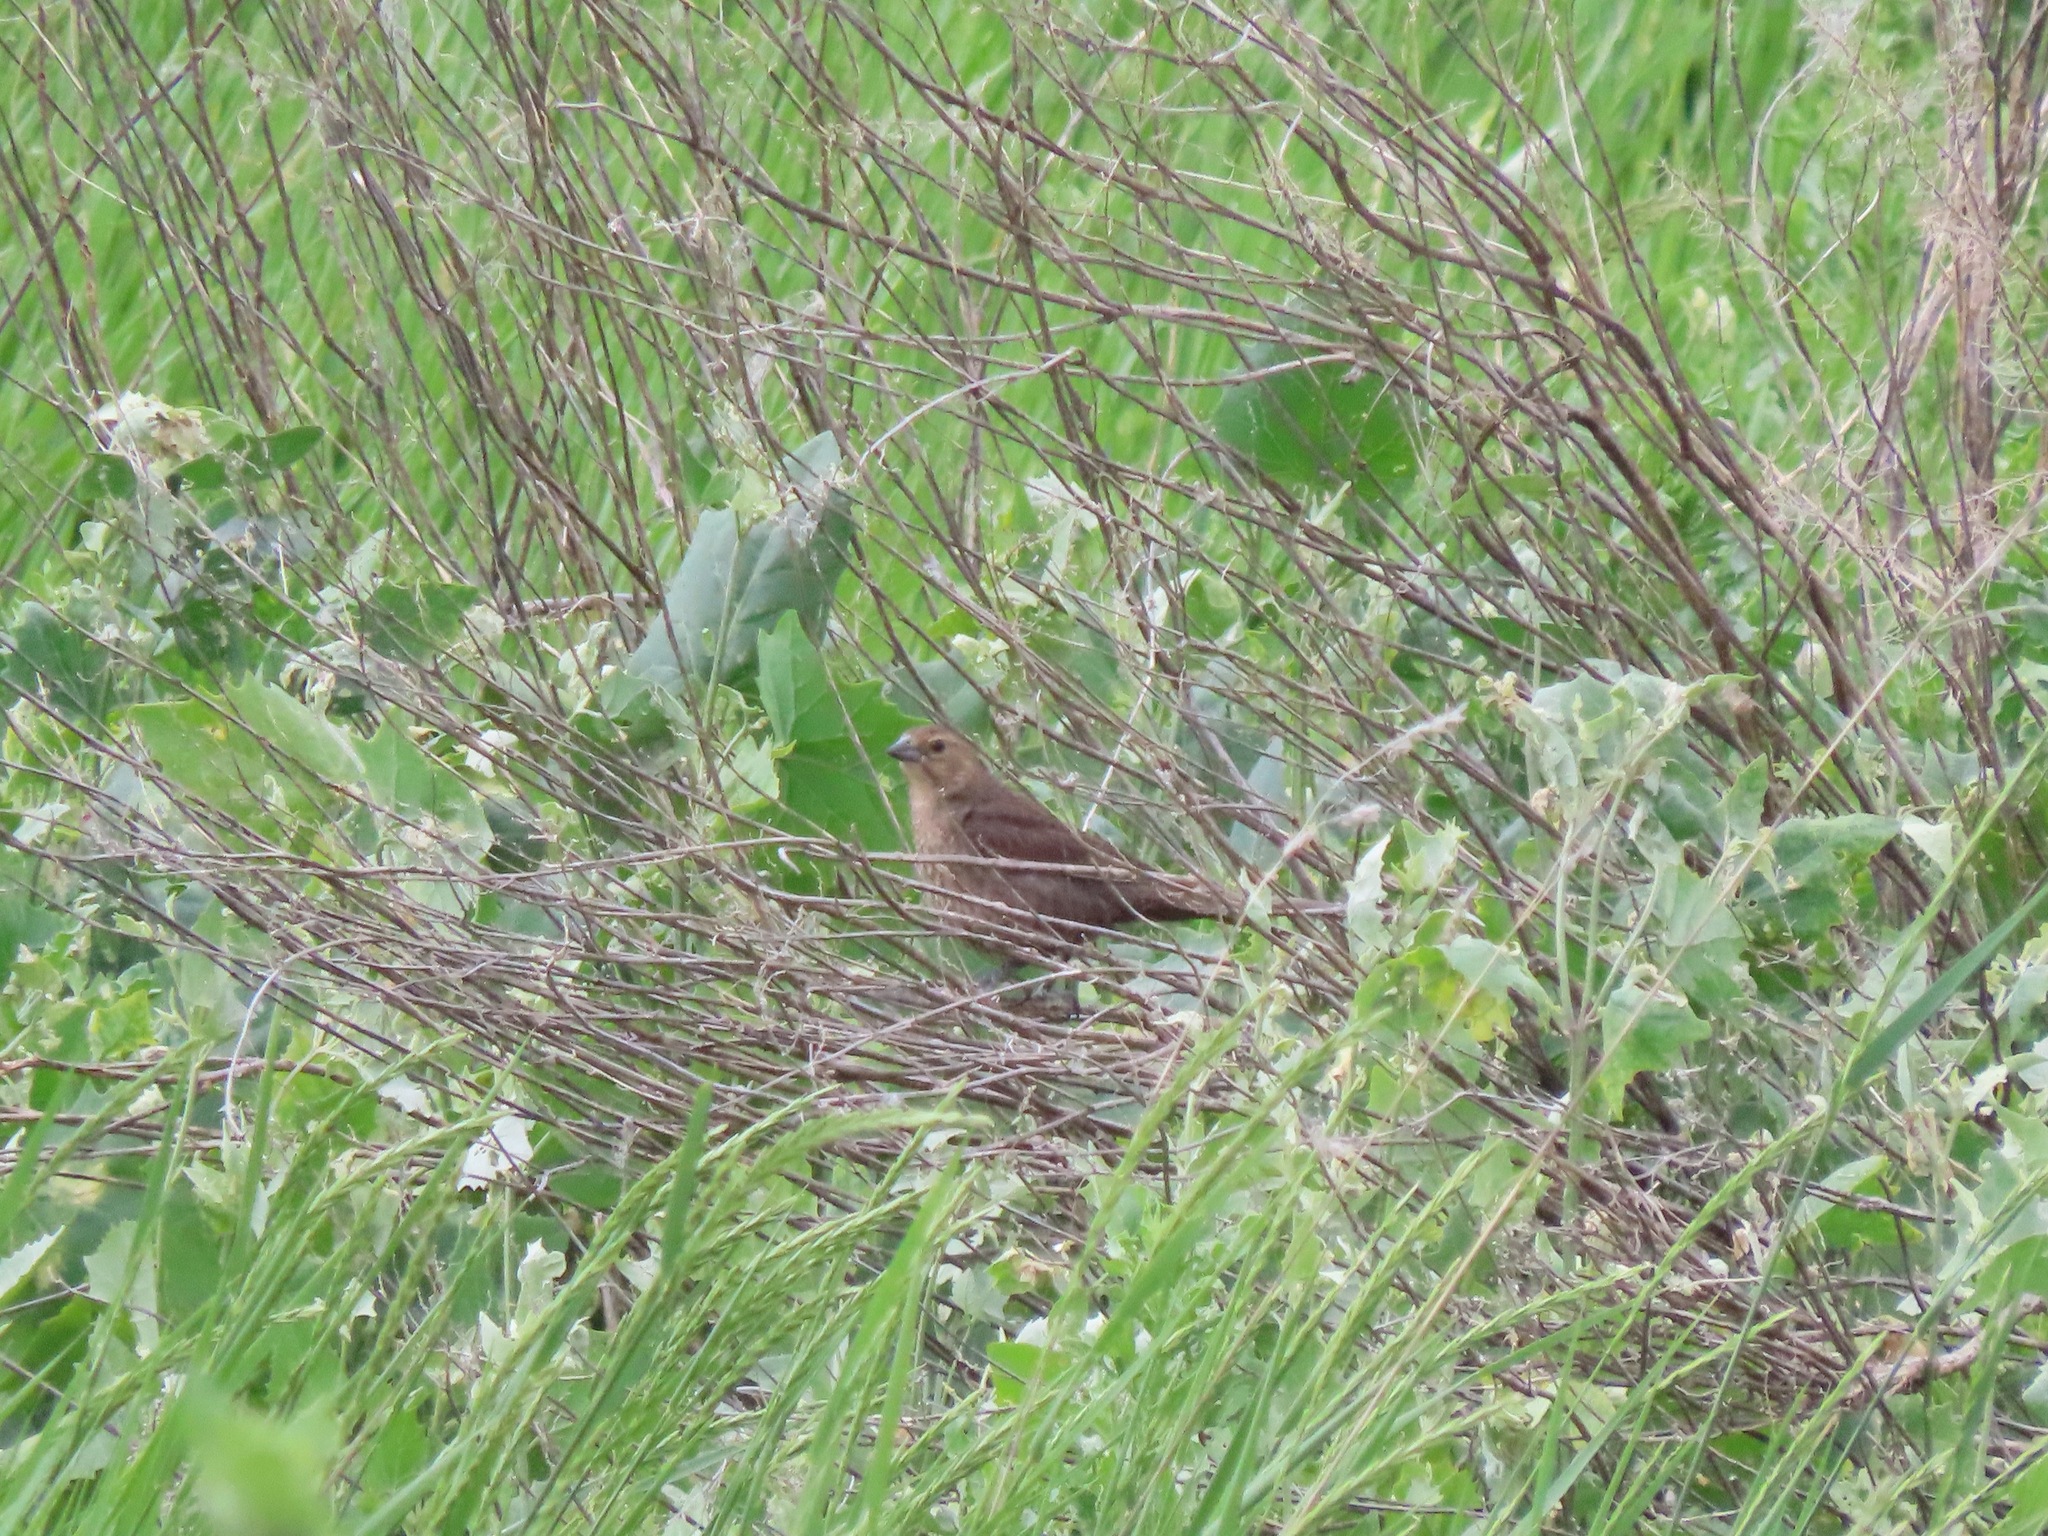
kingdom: Animalia
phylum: Chordata
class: Aves
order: Passeriformes
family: Icteridae
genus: Molothrus
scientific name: Molothrus ater
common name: Brown-headed cowbird
